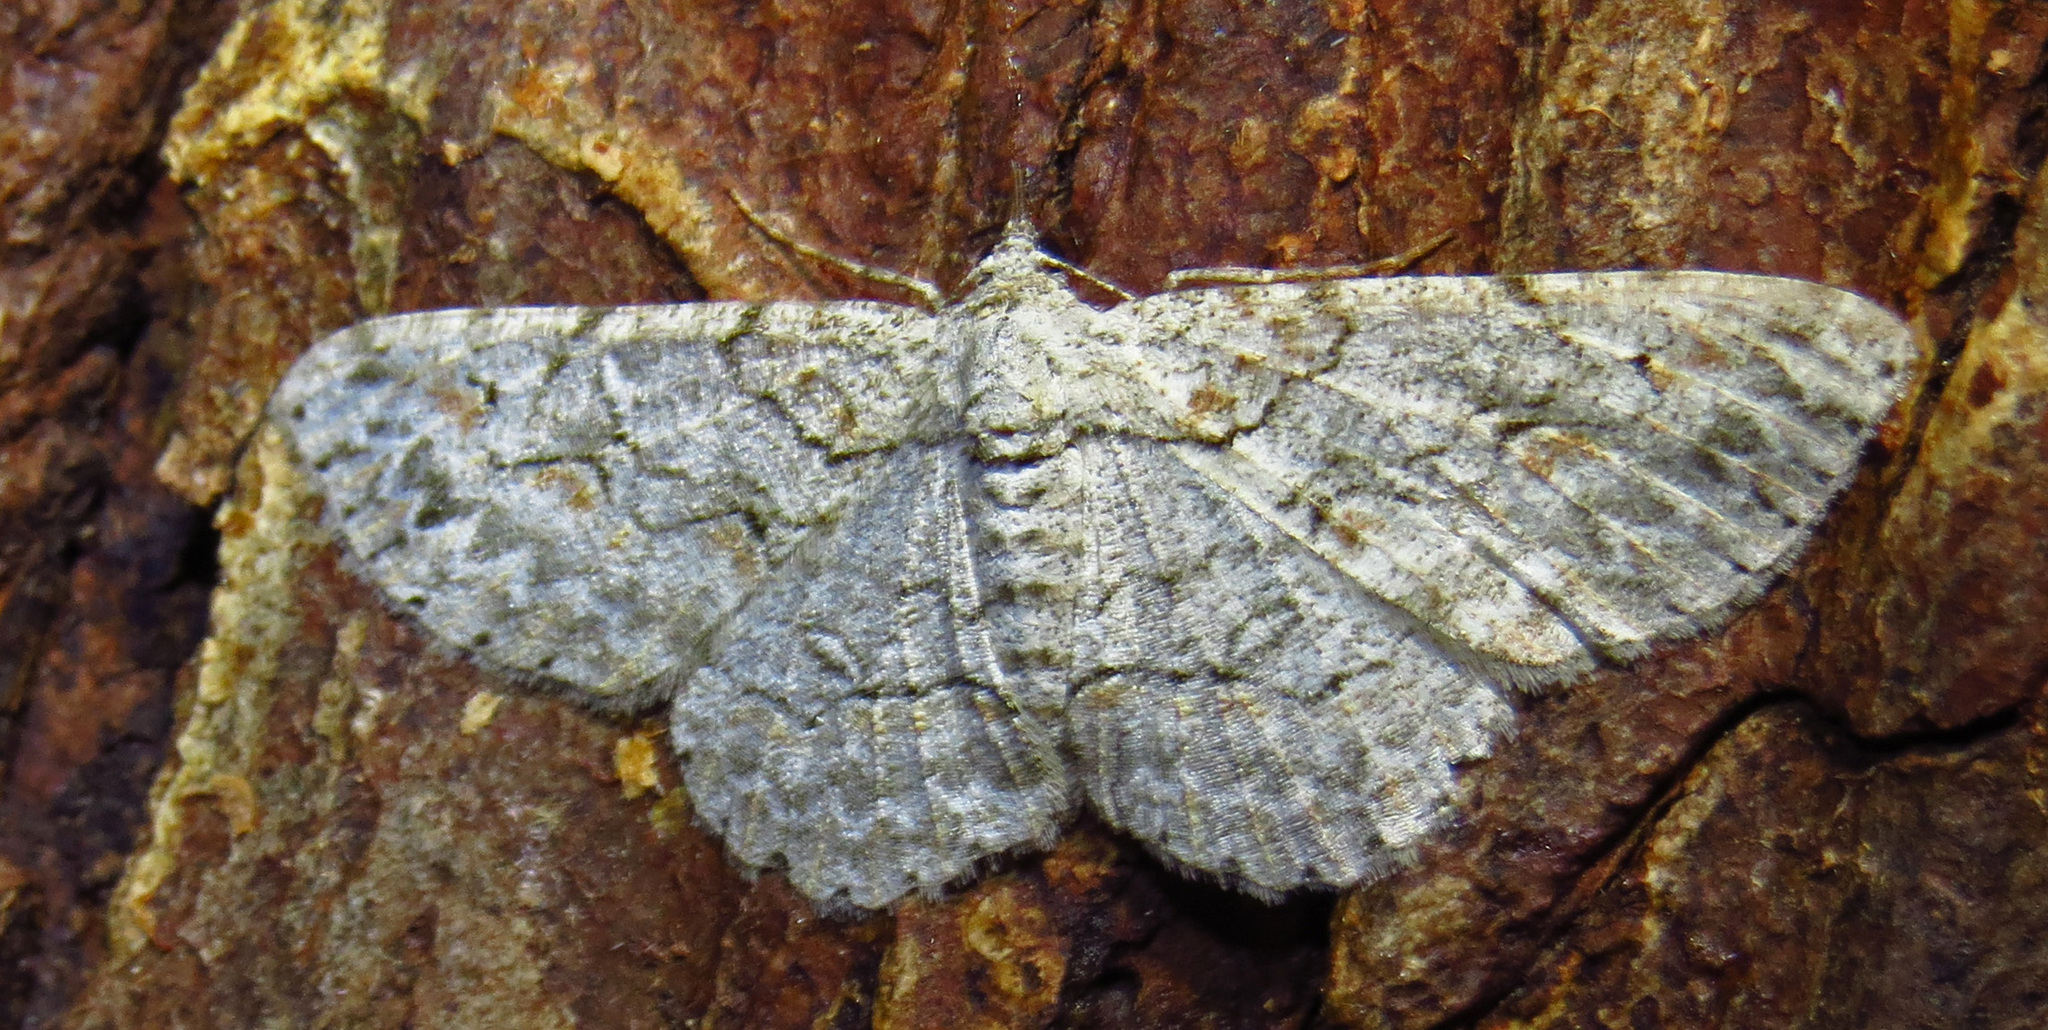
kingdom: Animalia
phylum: Arthropoda
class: Insecta
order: Lepidoptera
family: Geometridae
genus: Iridopsis
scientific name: Iridopsis defectaria
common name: Brown-shaded gray
